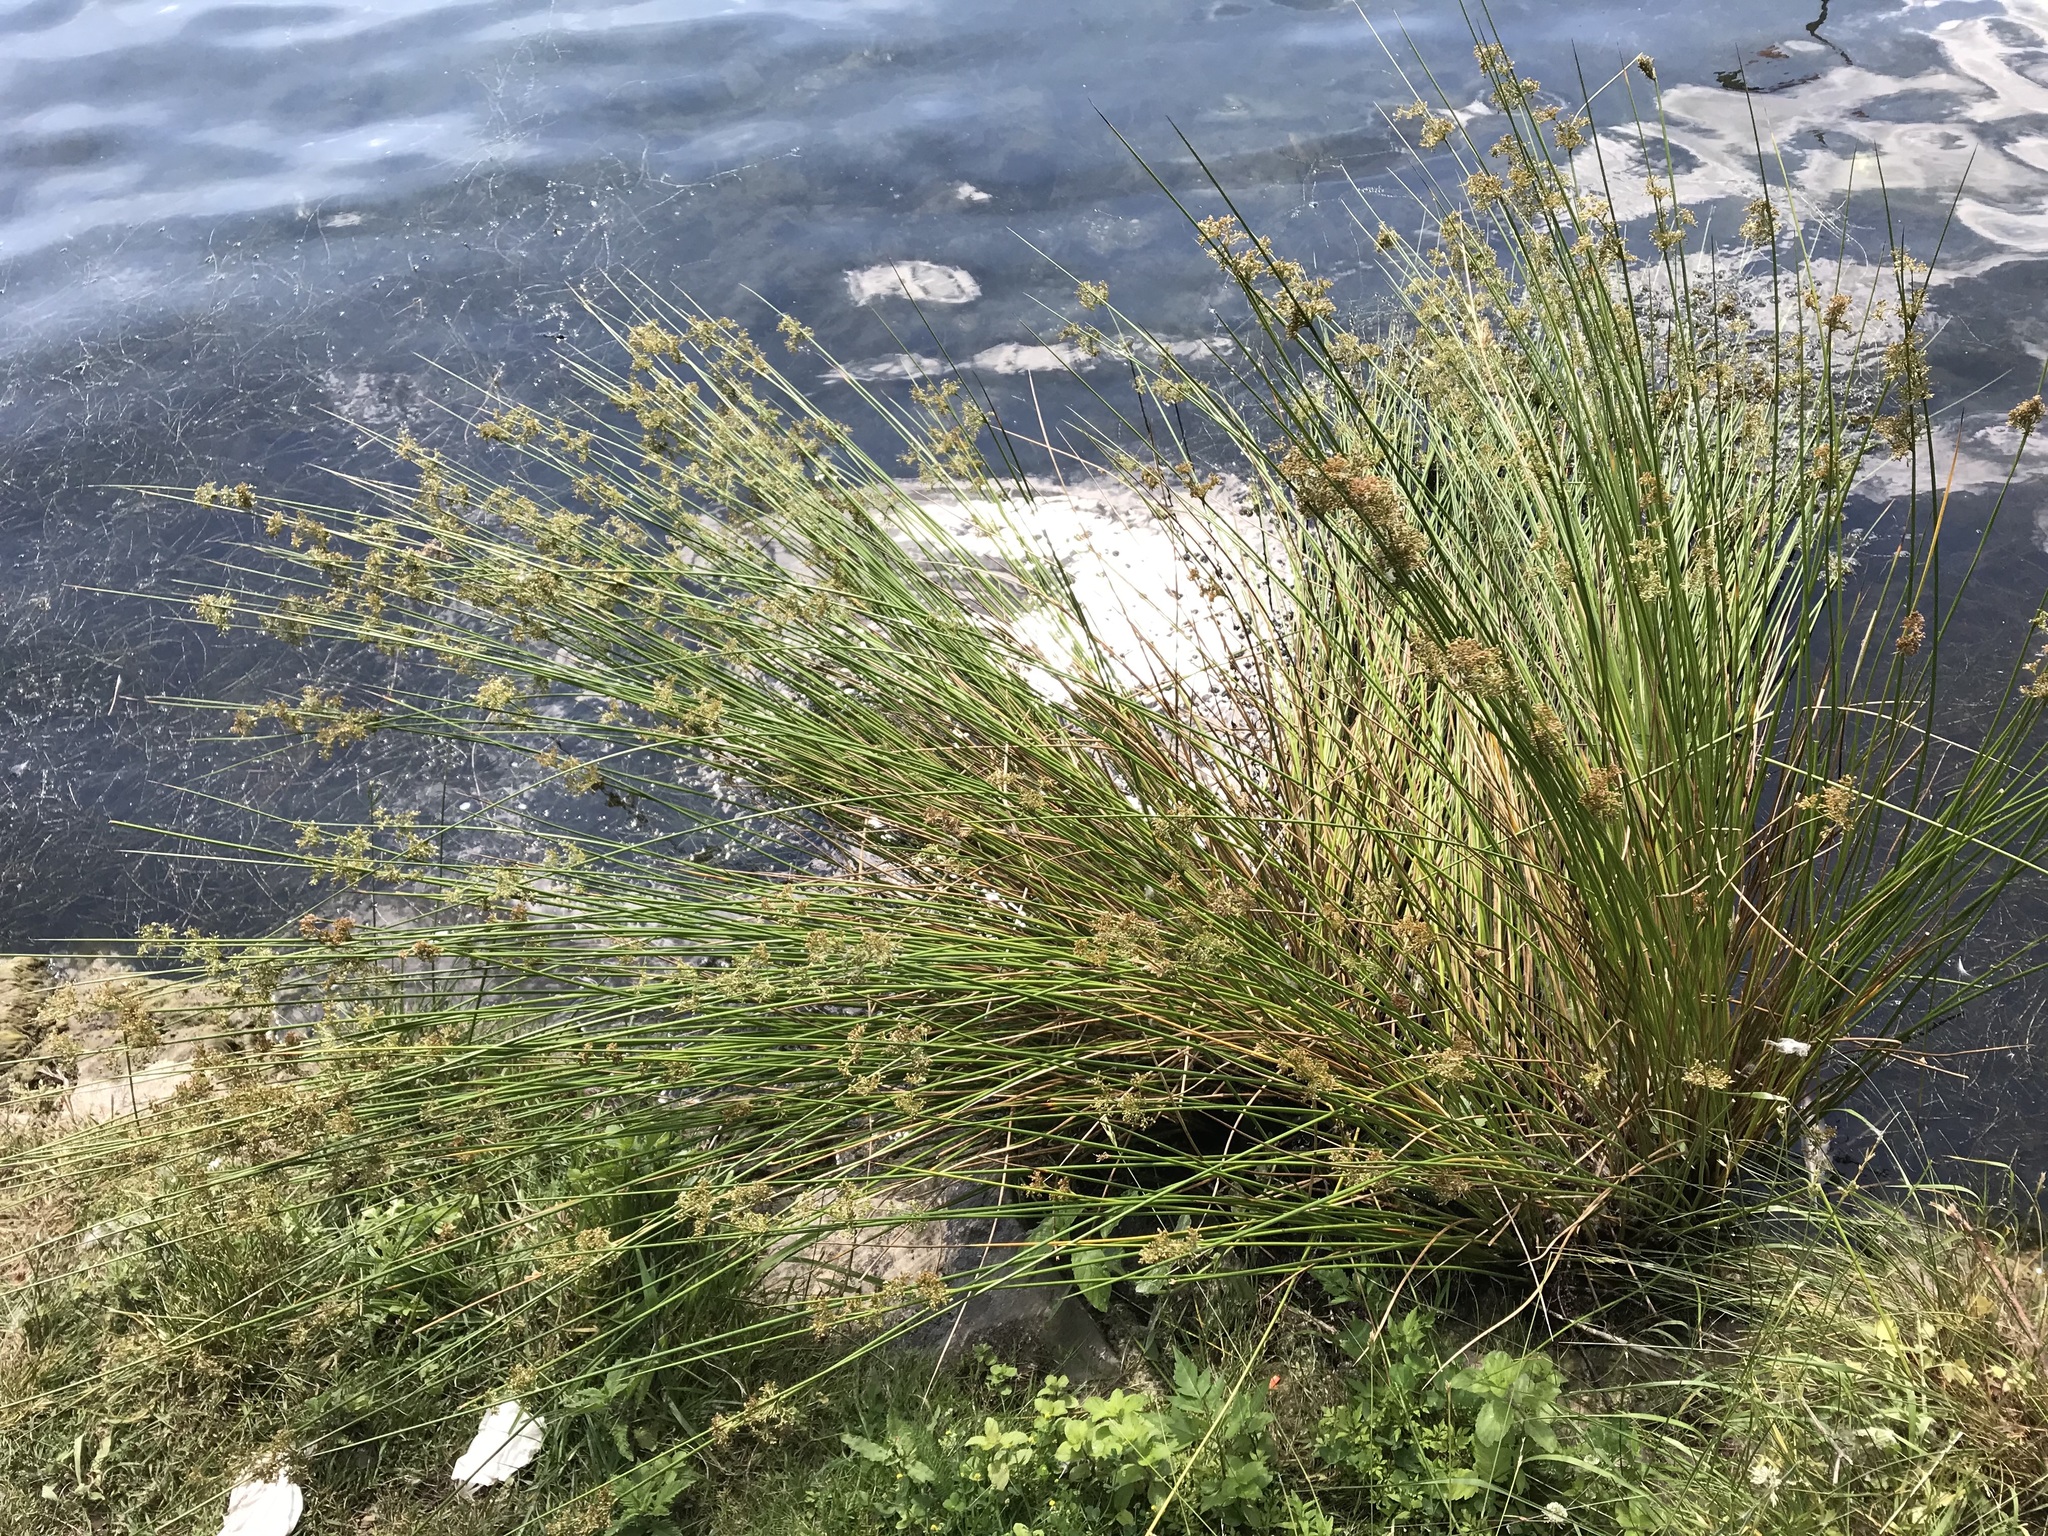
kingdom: Plantae
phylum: Tracheophyta
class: Liliopsida
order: Poales
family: Juncaceae
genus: Juncus
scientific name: Juncus effusus
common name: Soft rush
